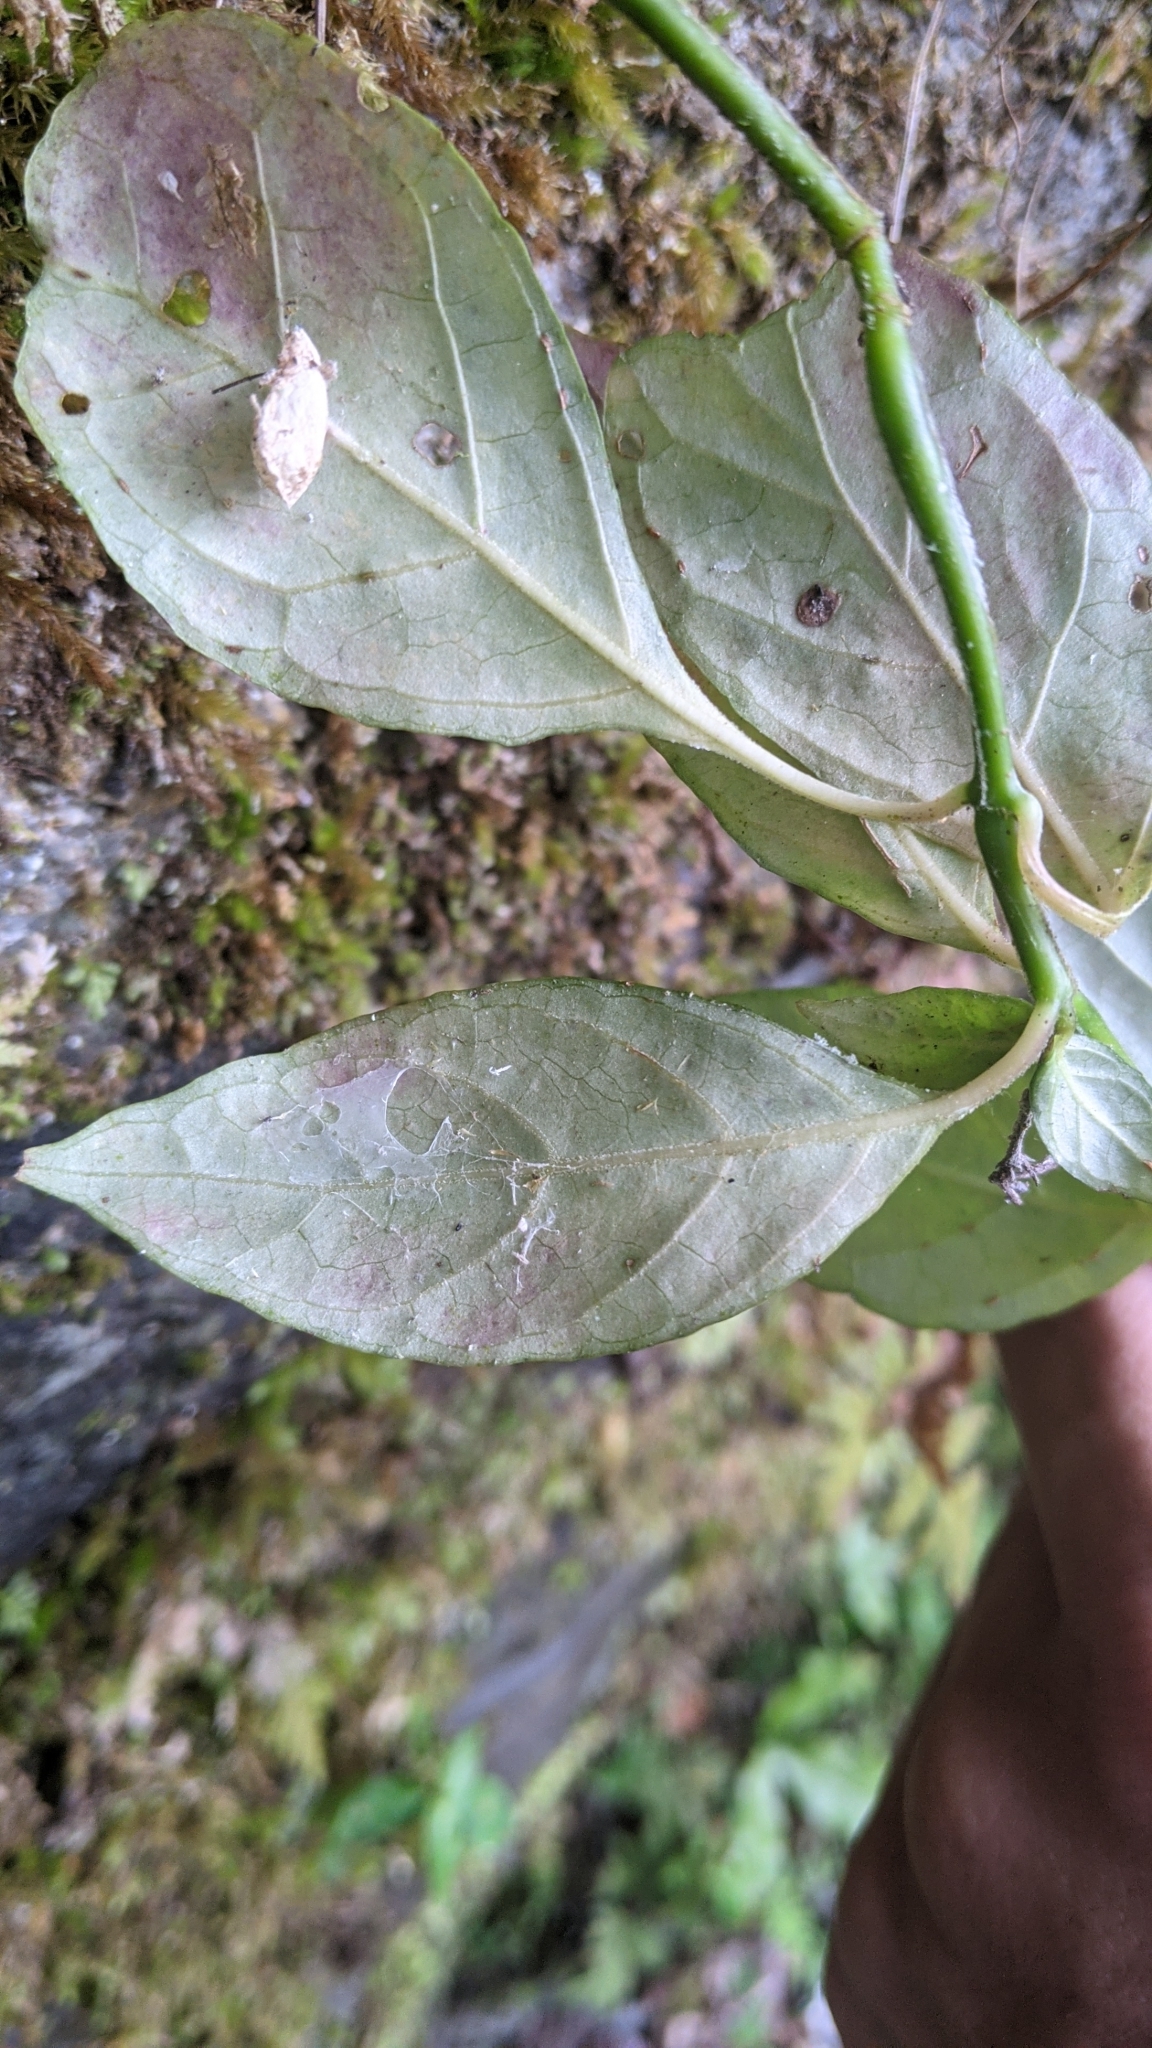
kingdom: Plantae
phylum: Tracheophyta
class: Magnoliopsida
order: Lamiales
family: Acanthaceae
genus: Codonacanthus
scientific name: Codonacanthus pauciflorus
